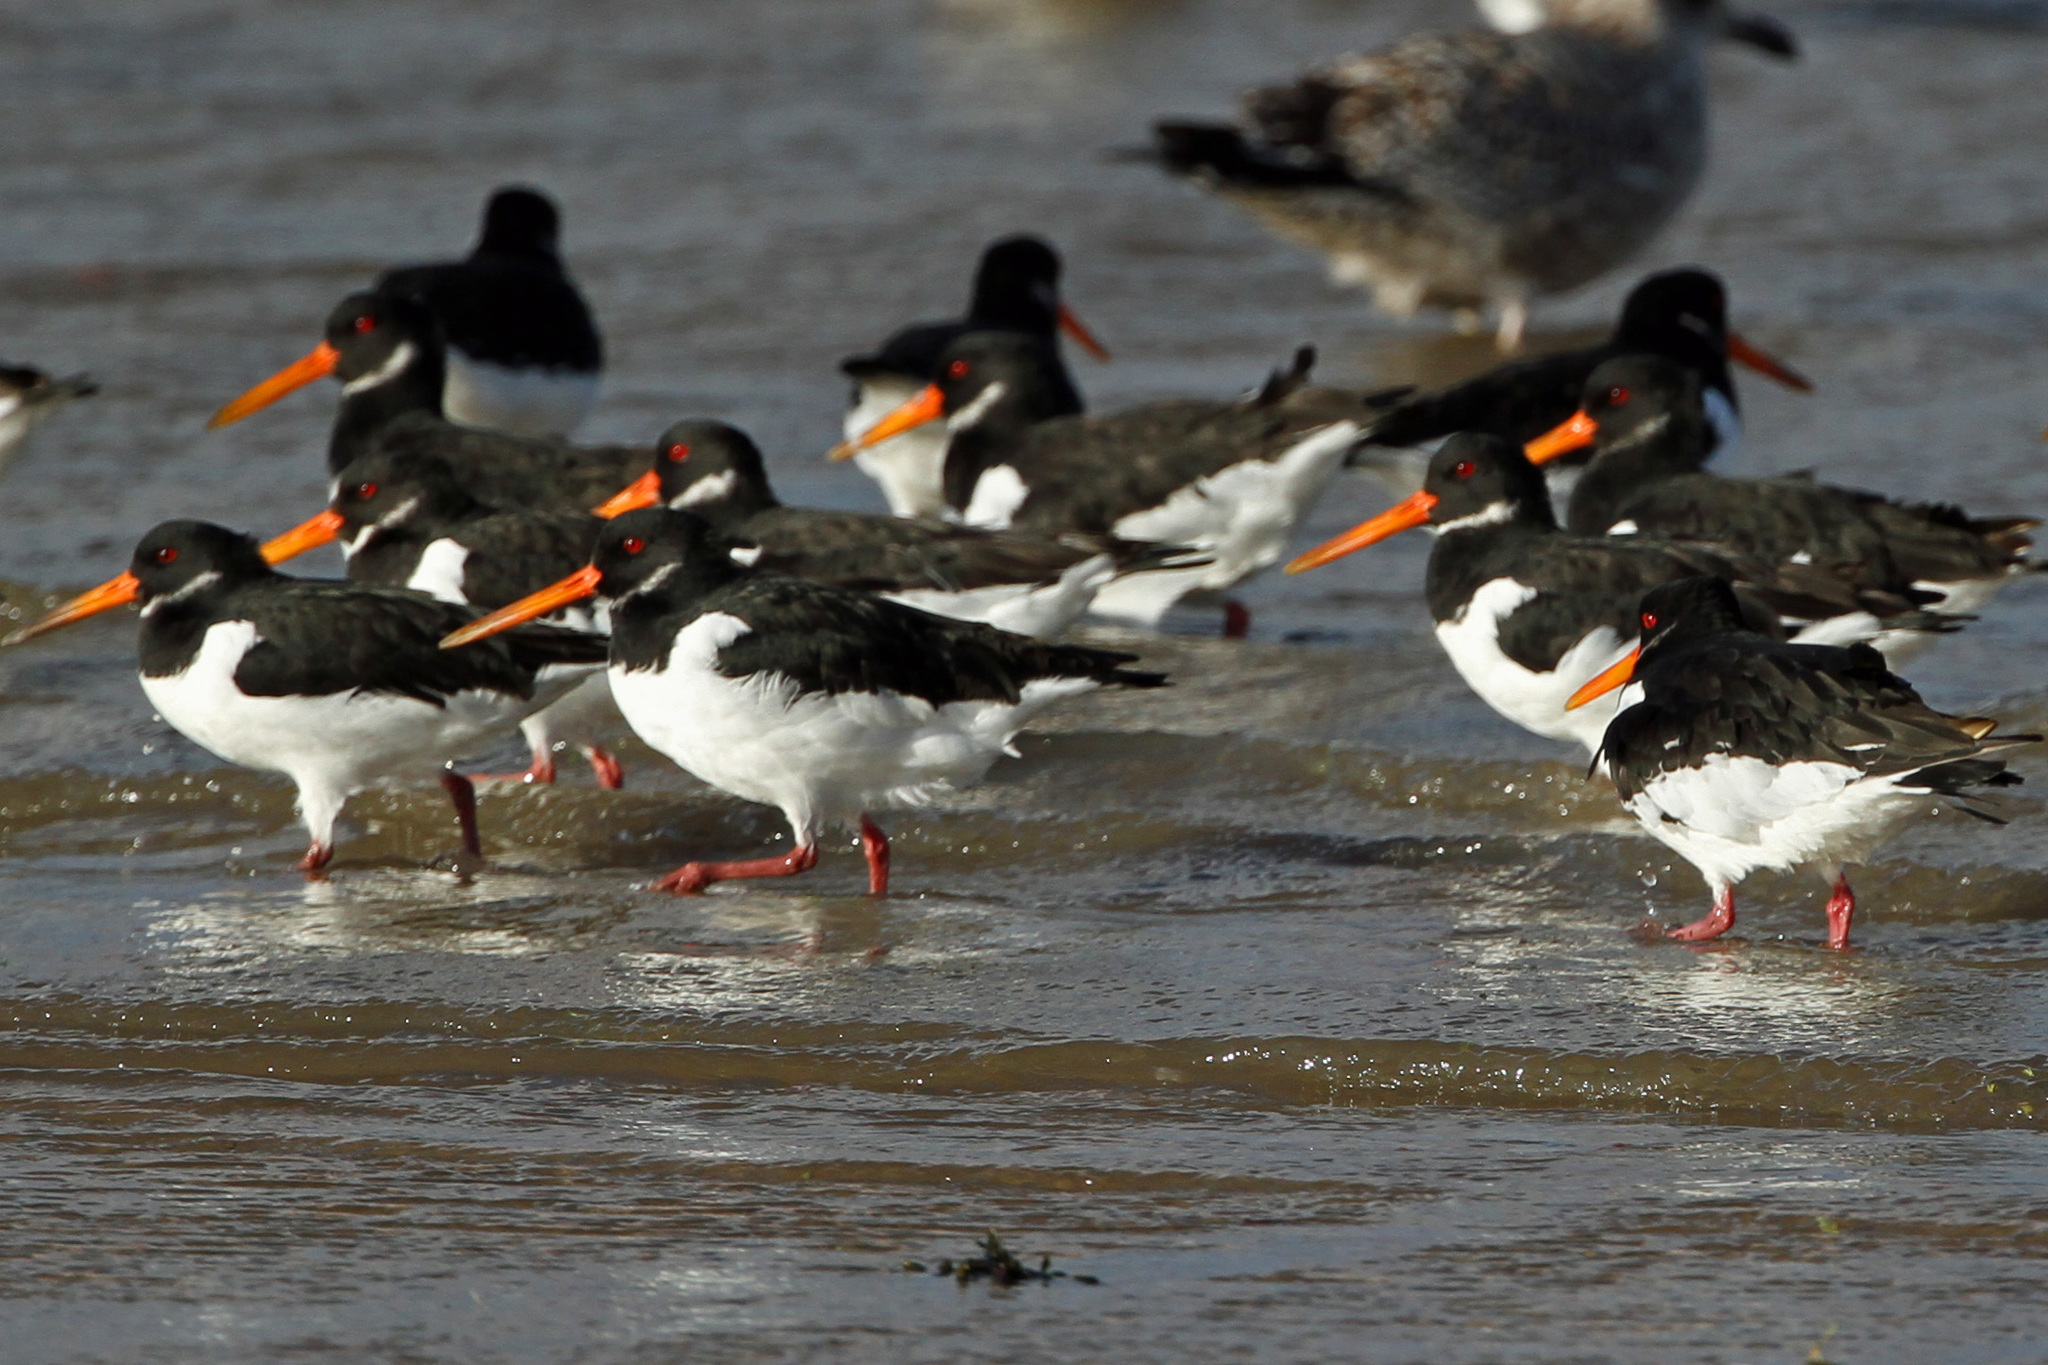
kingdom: Animalia
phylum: Chordata
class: Aves
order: Charadriiformes
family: Haematopodidae
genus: Haematopus
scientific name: Haematopus ostralegus
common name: Eurasian oystercatcher
